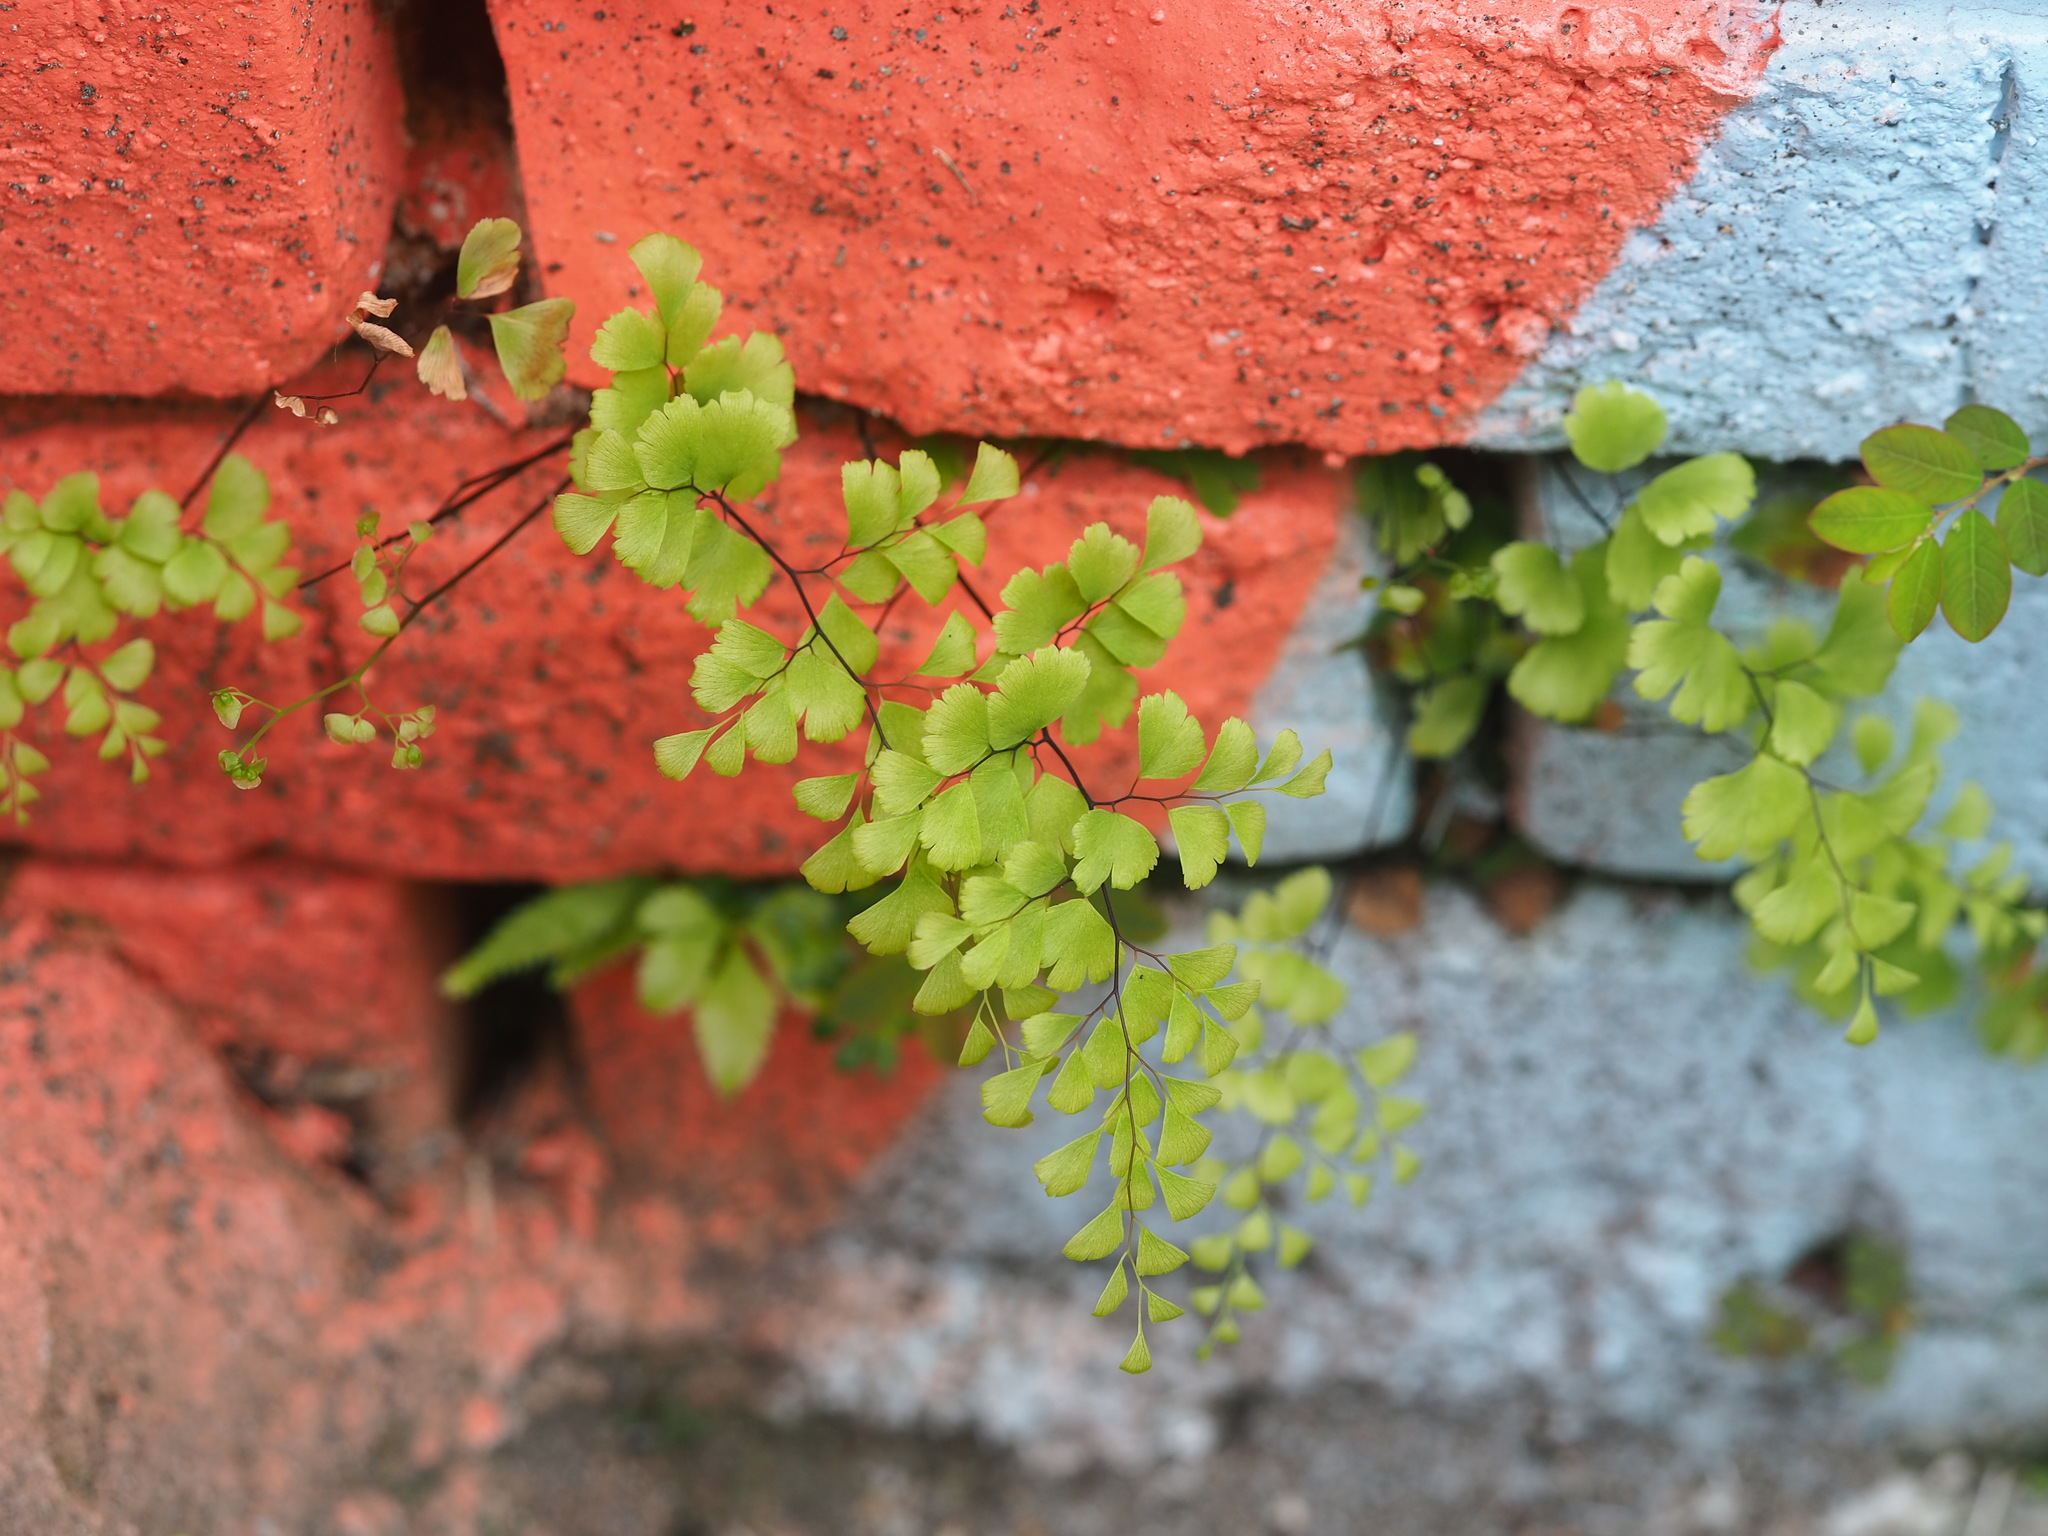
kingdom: Plantae
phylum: Tracheophyta
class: Polypodiopsida
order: Polypodiales
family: Pteridaceae
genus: Adiantum
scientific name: Adiantum capillus-veneris
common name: Maidenhair fern
